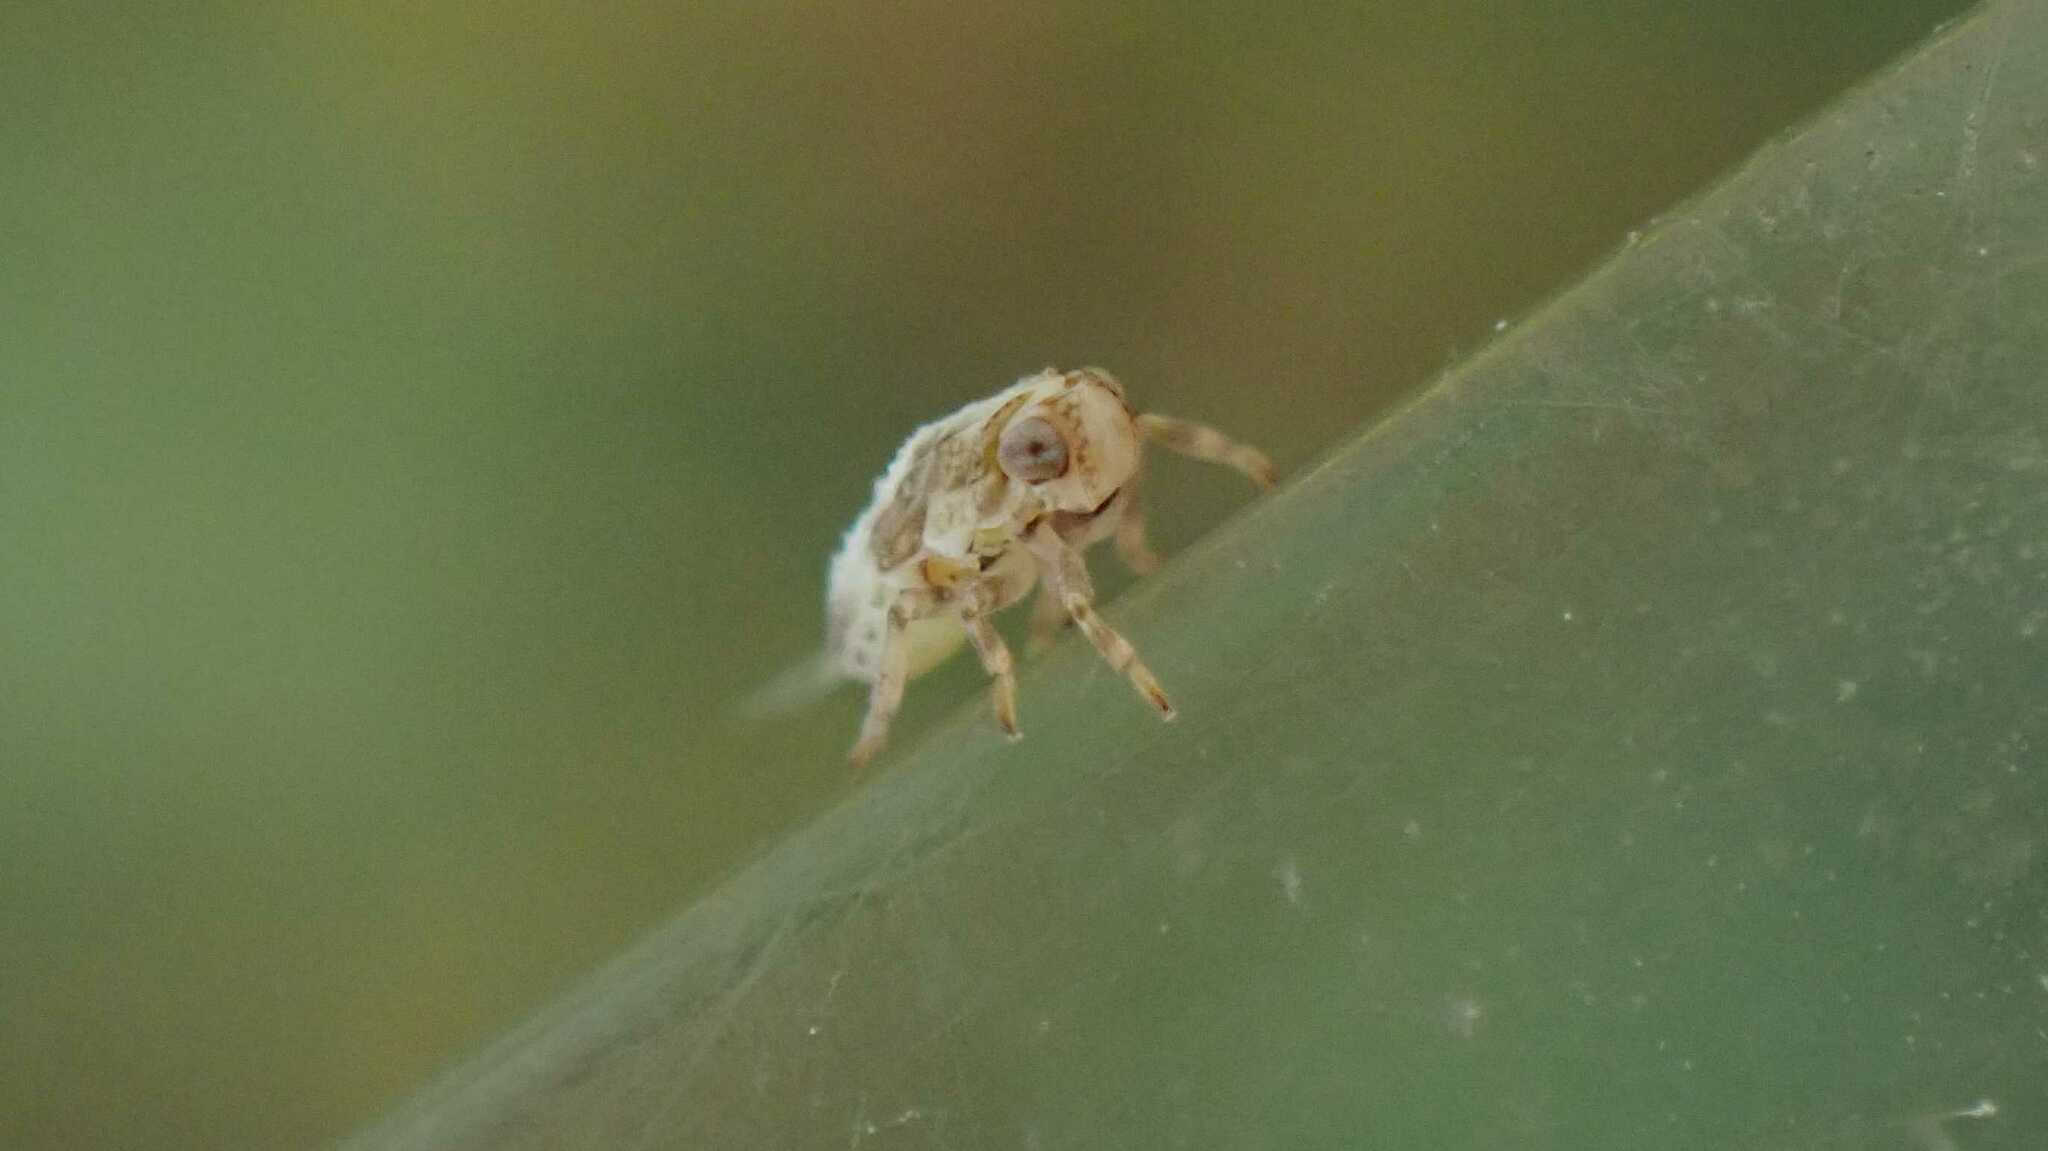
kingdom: Animalia
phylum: Arthropoda
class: Insecta
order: Hemiptera
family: Issidae
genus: Issus
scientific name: Issus
